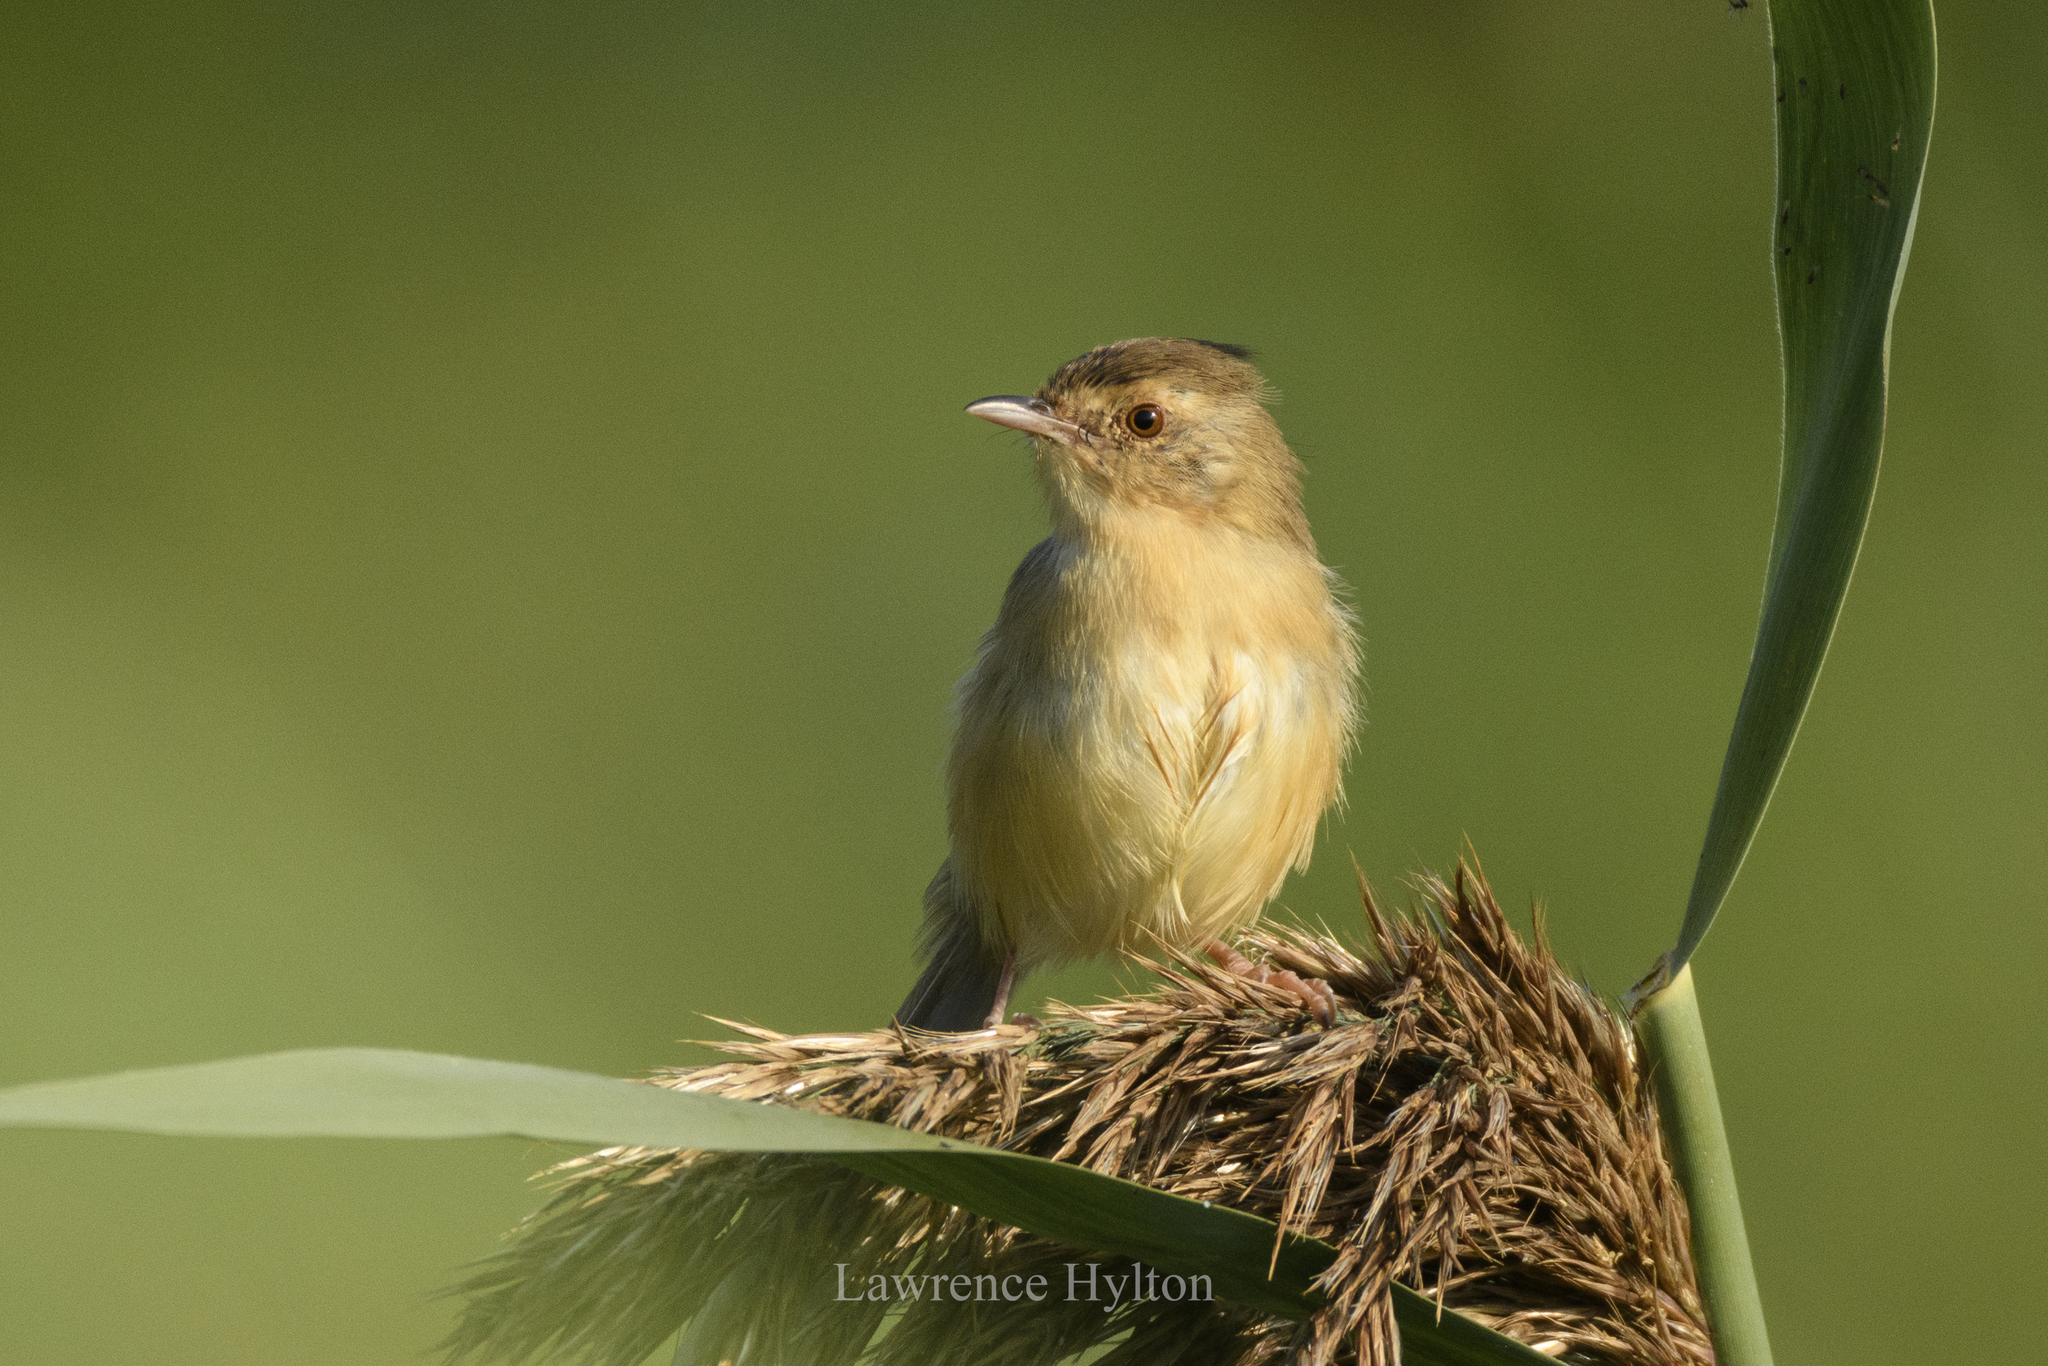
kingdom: Animalia
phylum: Chordata
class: Aves
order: Passeriformes
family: Cisticolidae
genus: Prinia
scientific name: Prinia inornata
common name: Plain prinia
